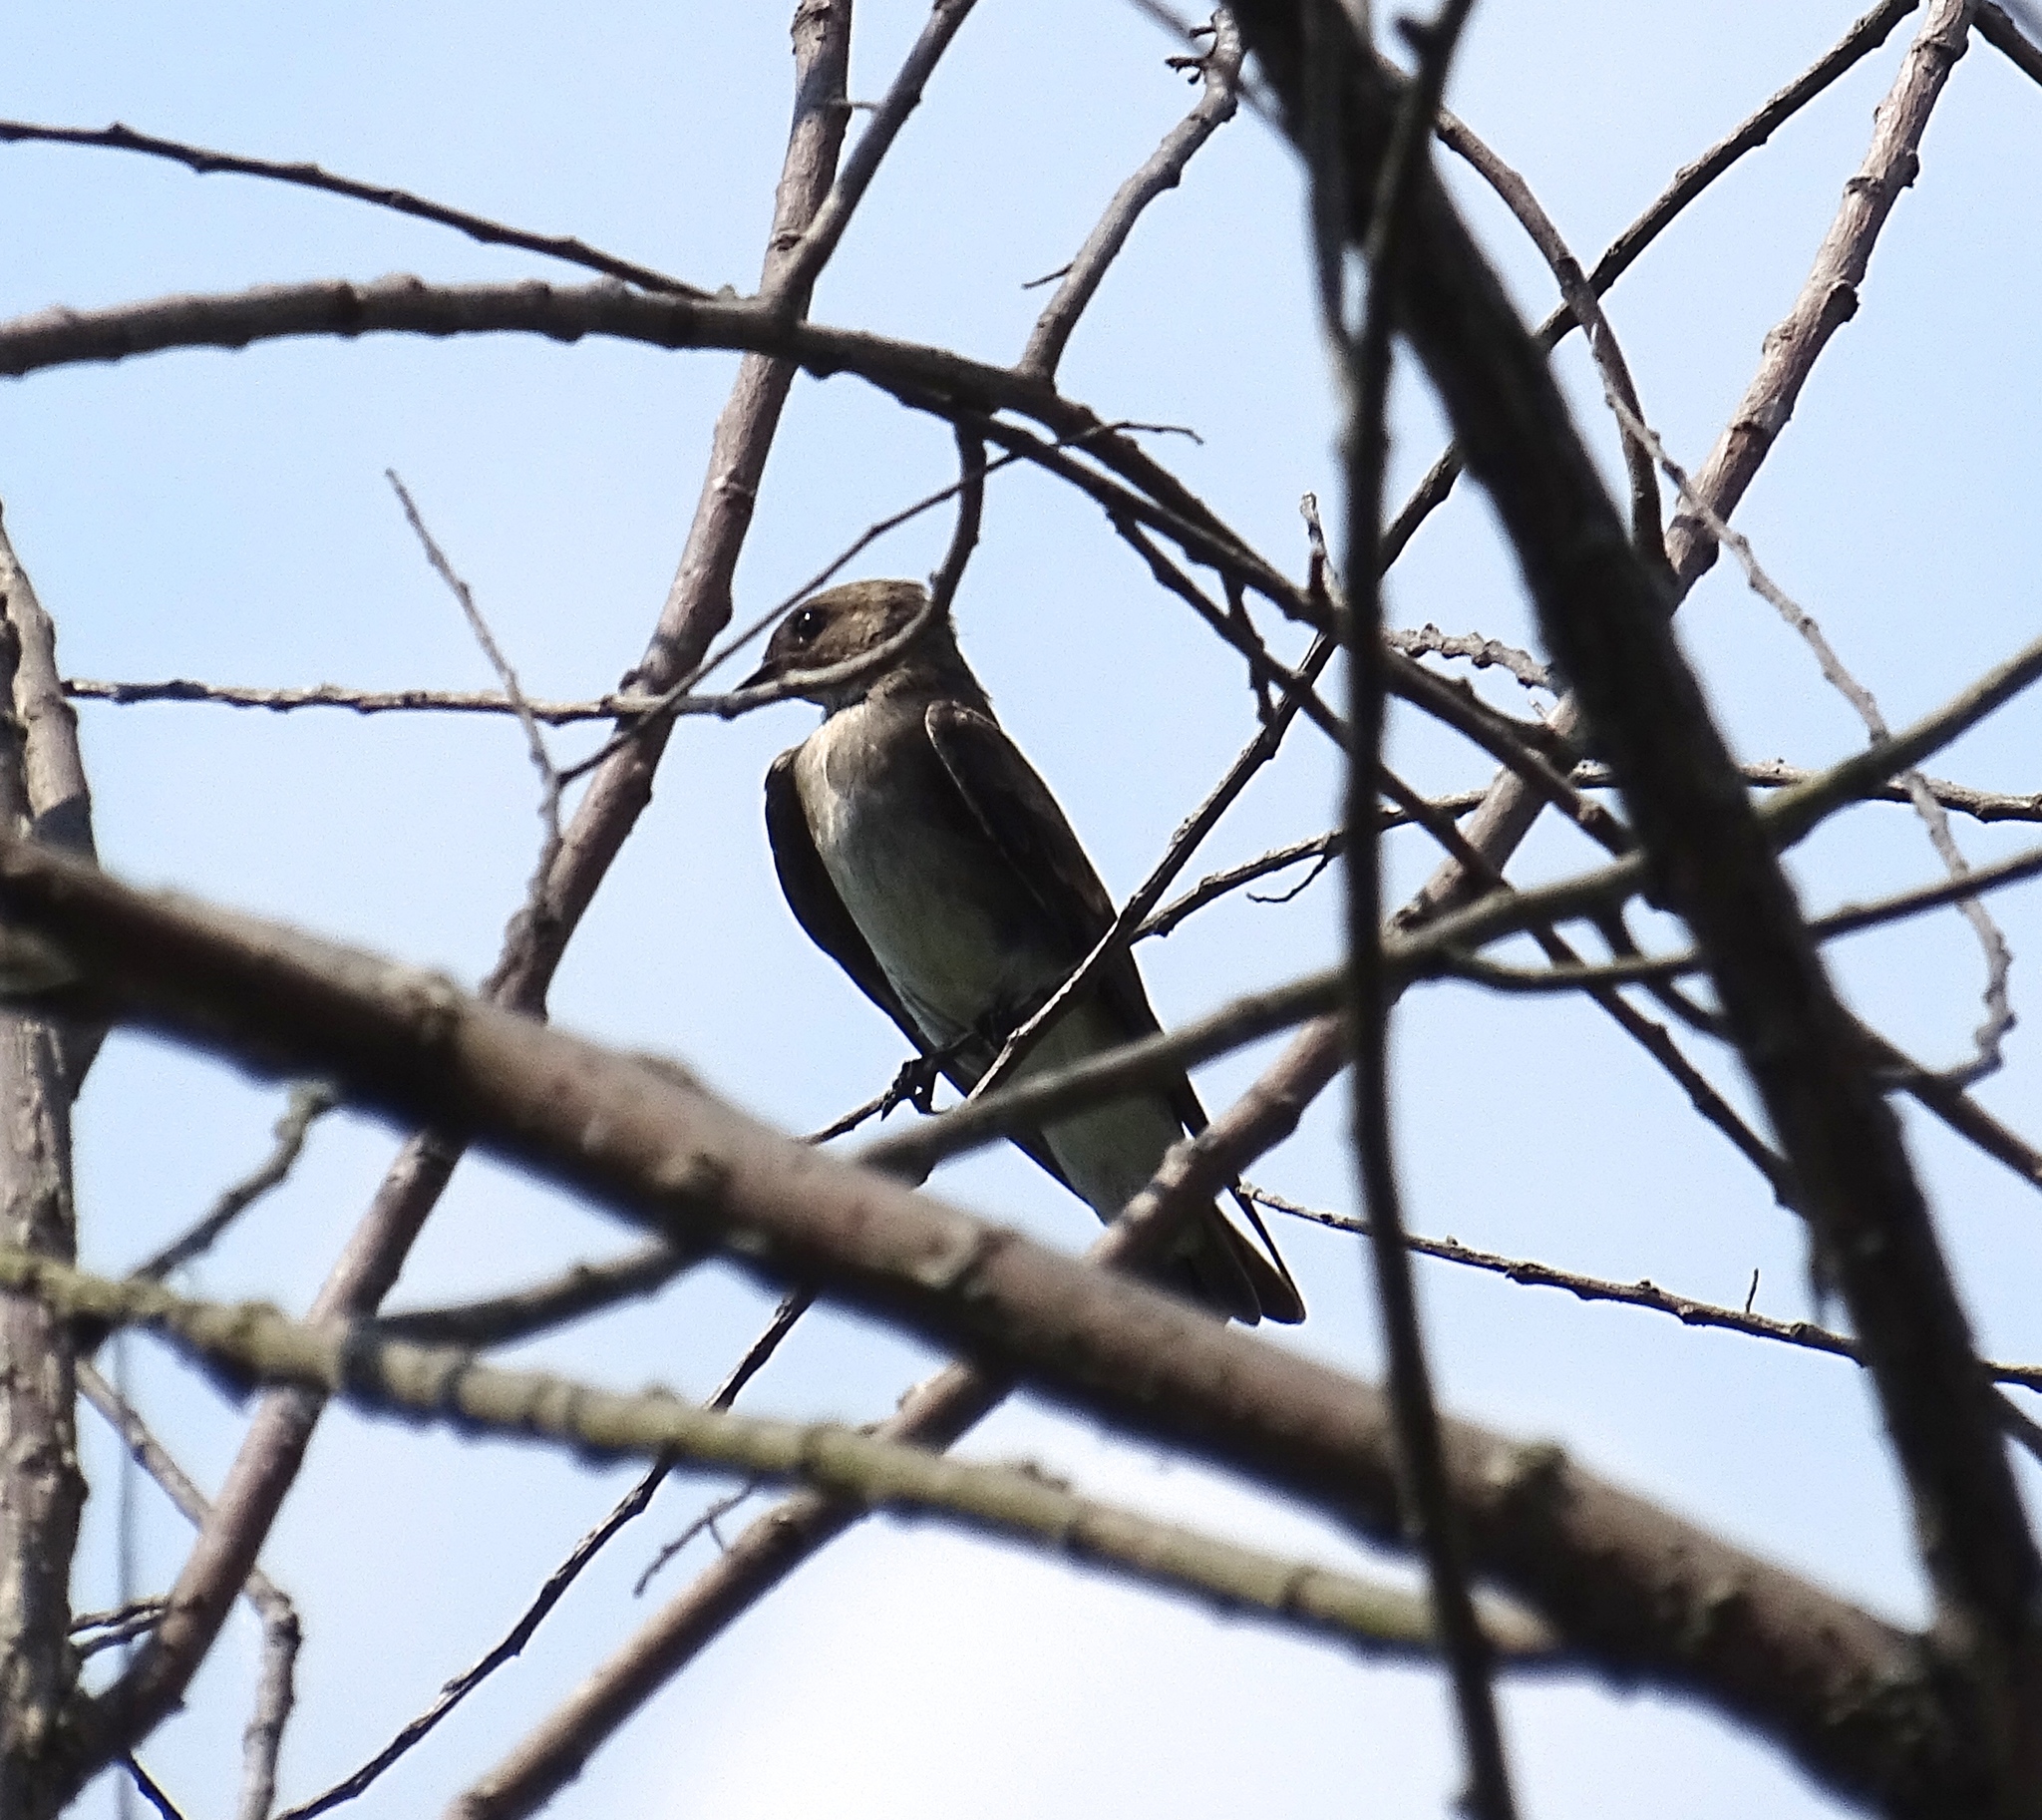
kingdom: Animalia
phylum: Chordata
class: Aves
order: Passeriformes
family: Hirundinidae
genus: Stelgidopteryx
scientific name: Stelgidopteryx serripennis
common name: Northern rough-winged swallow
